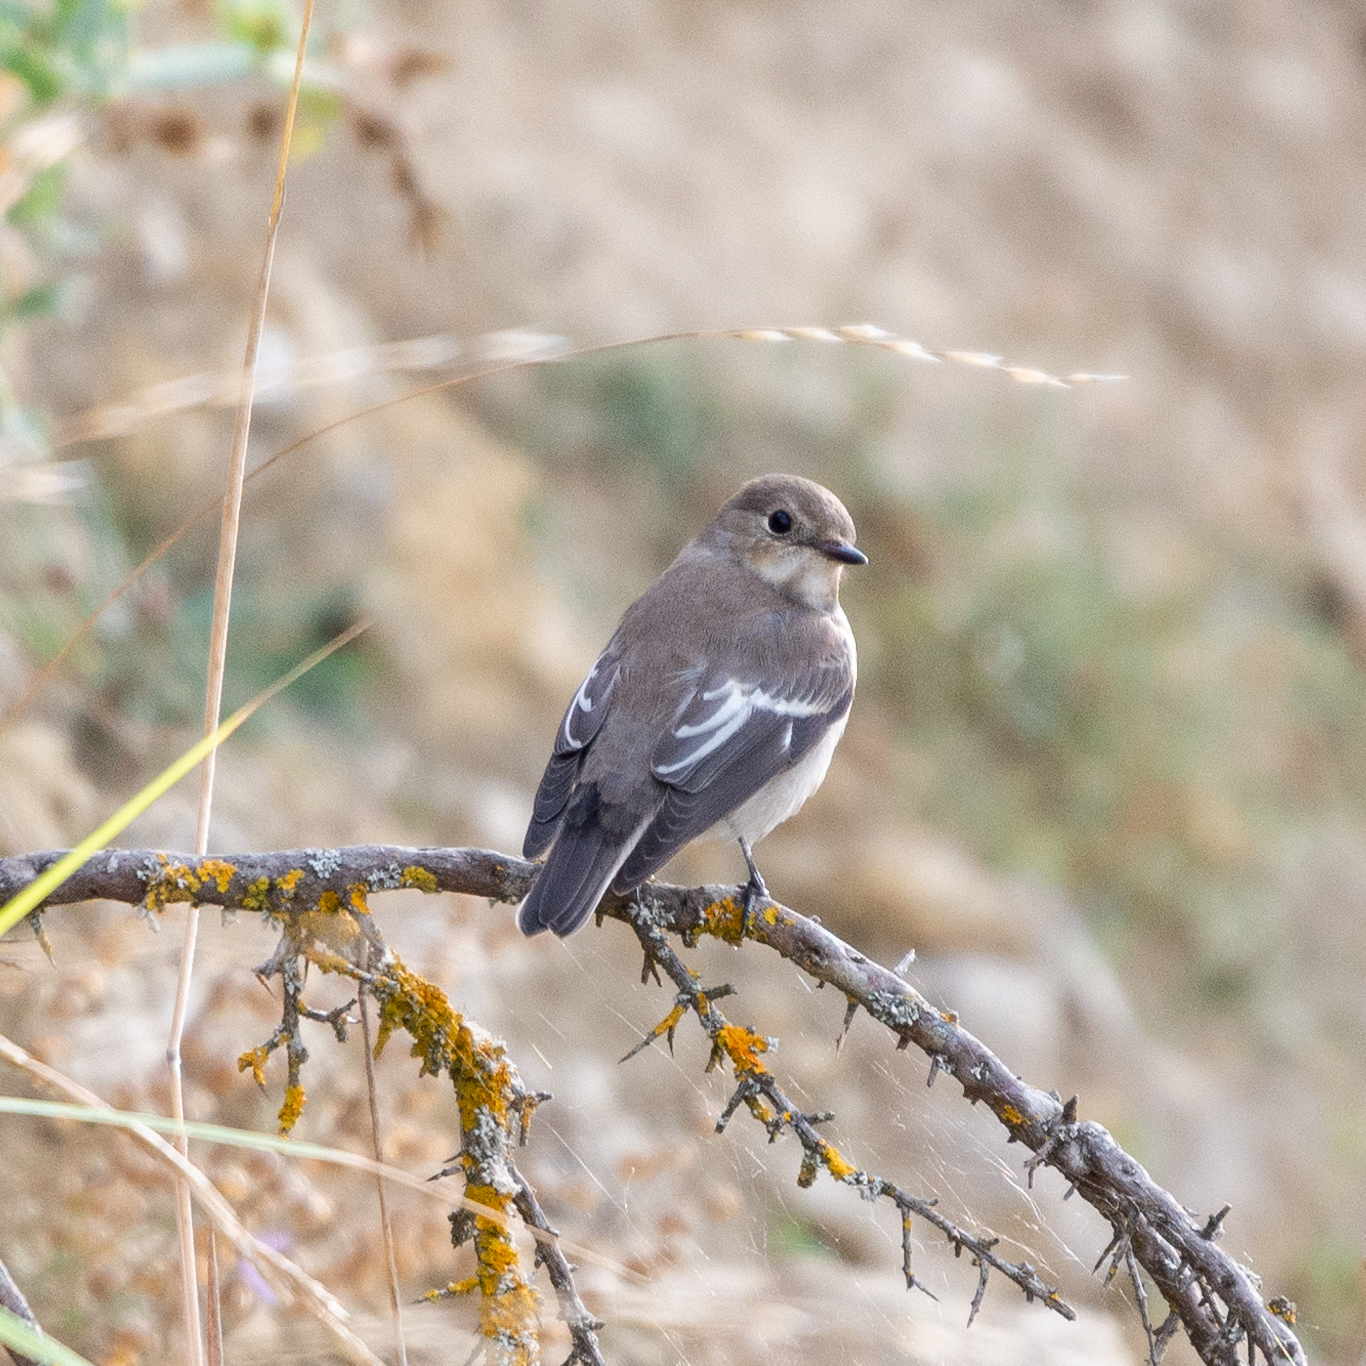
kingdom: Animalia
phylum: Chordata
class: Aves
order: Passeriformes
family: Muscicapidae
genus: Ficedula
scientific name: Ficedula hypoleuca
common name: European pied flycatcher
